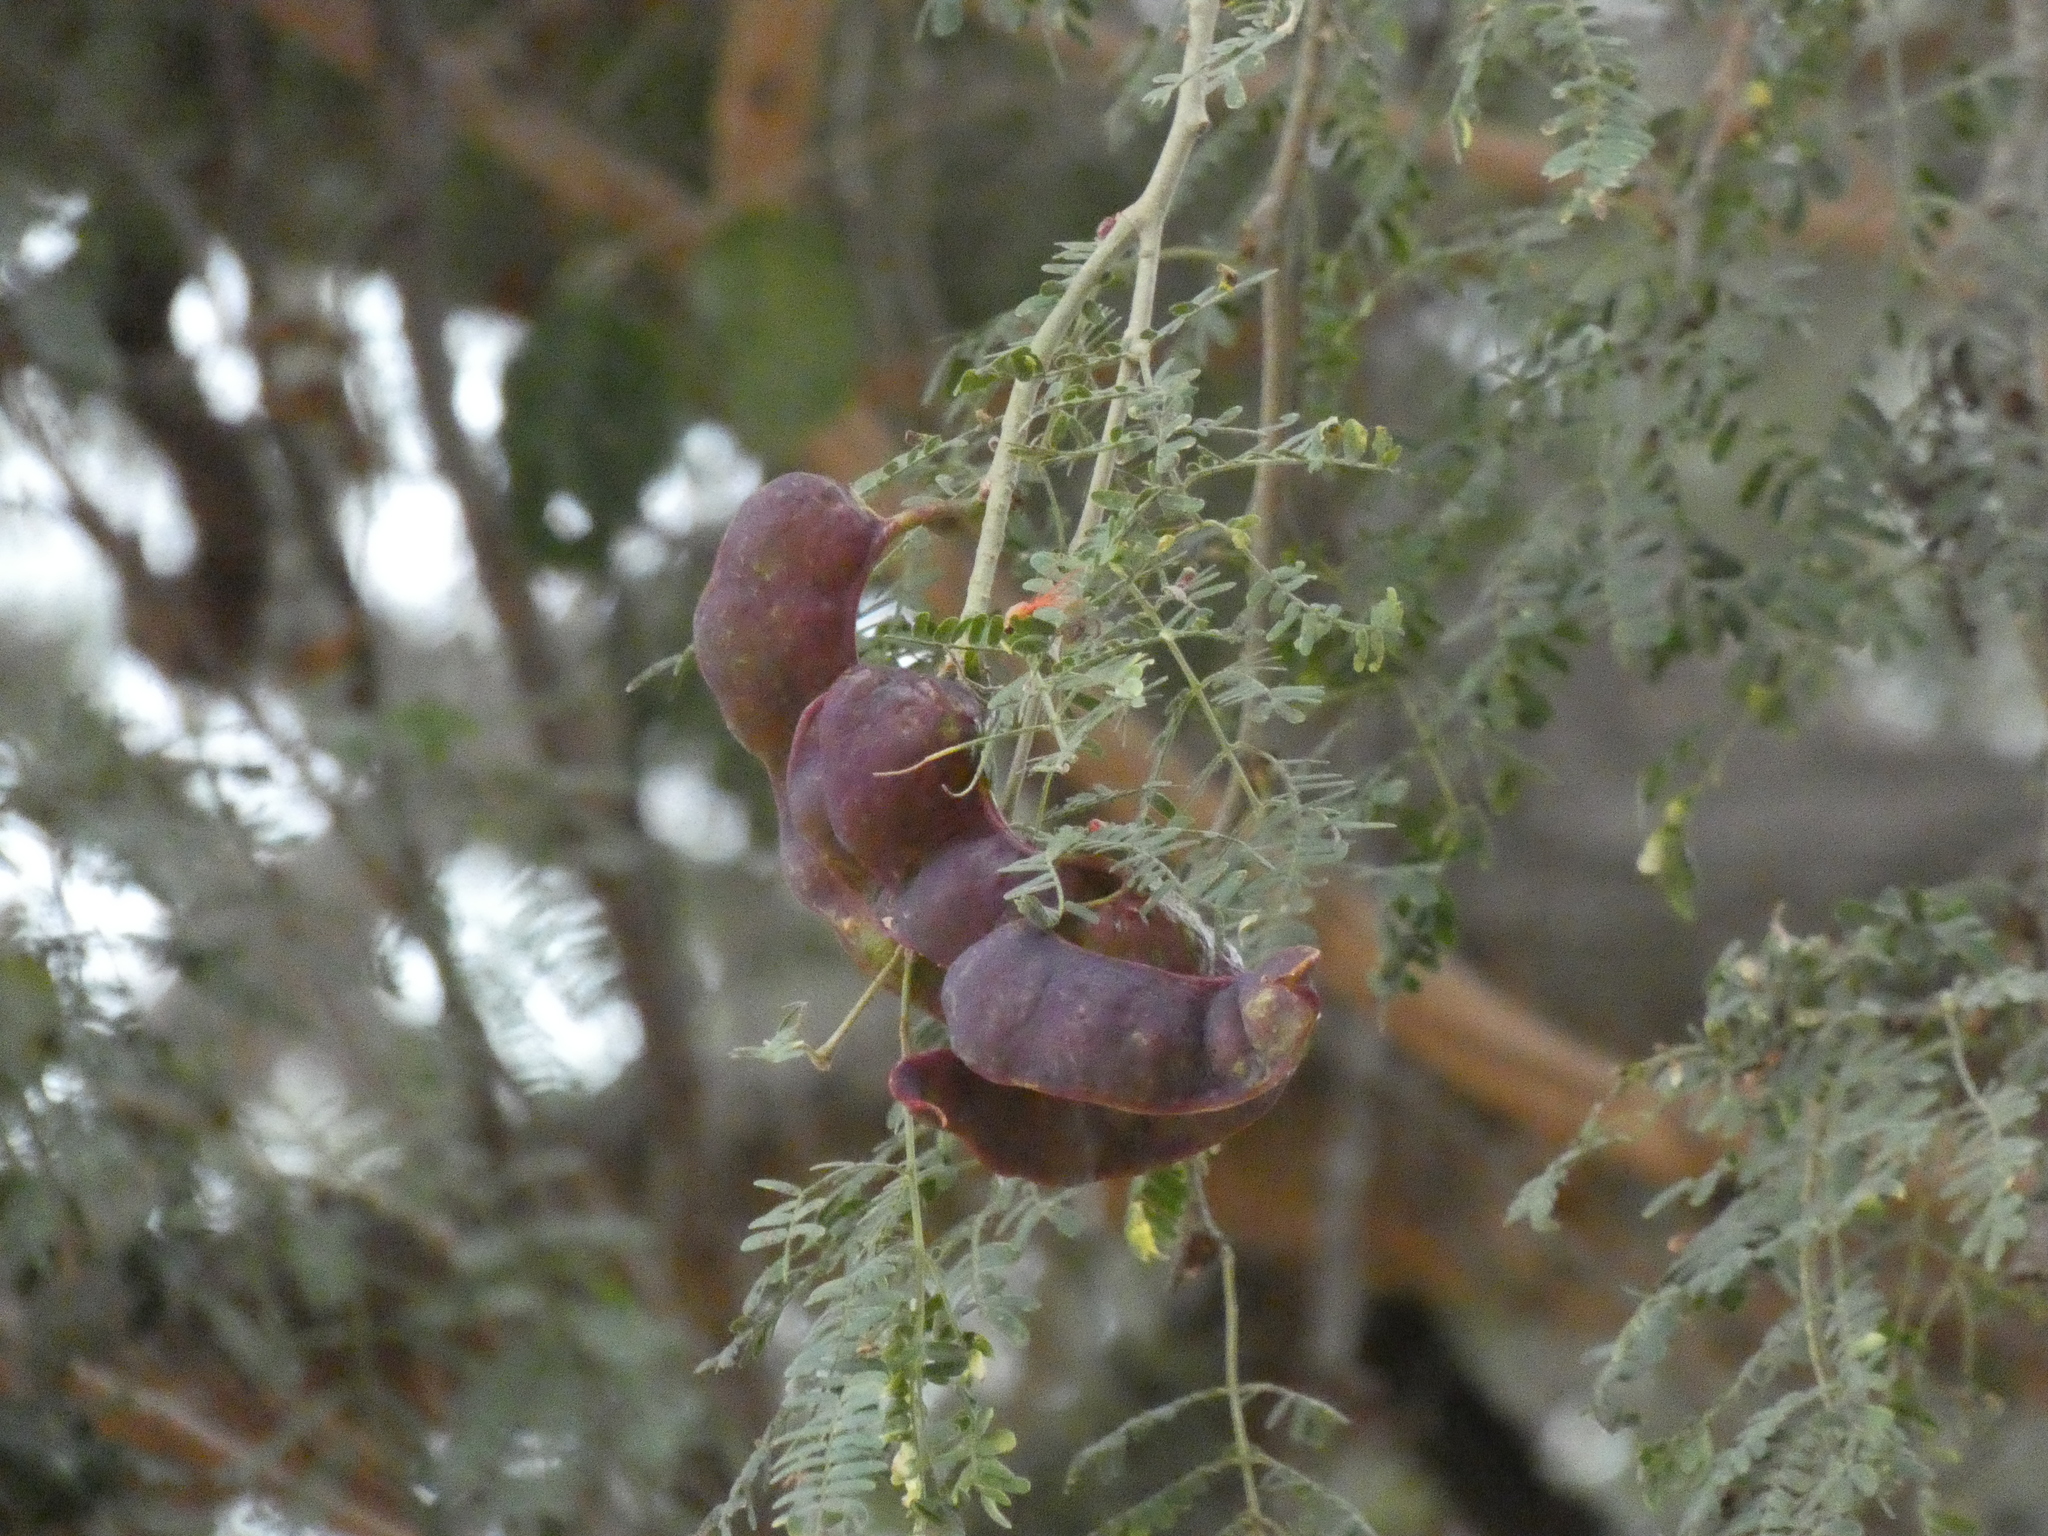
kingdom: Plantae
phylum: Tracheophyta
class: Magnoliopsida
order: Fabales
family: Fabaceae
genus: Faidherbia
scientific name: Faidherbia albida
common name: Anatree
